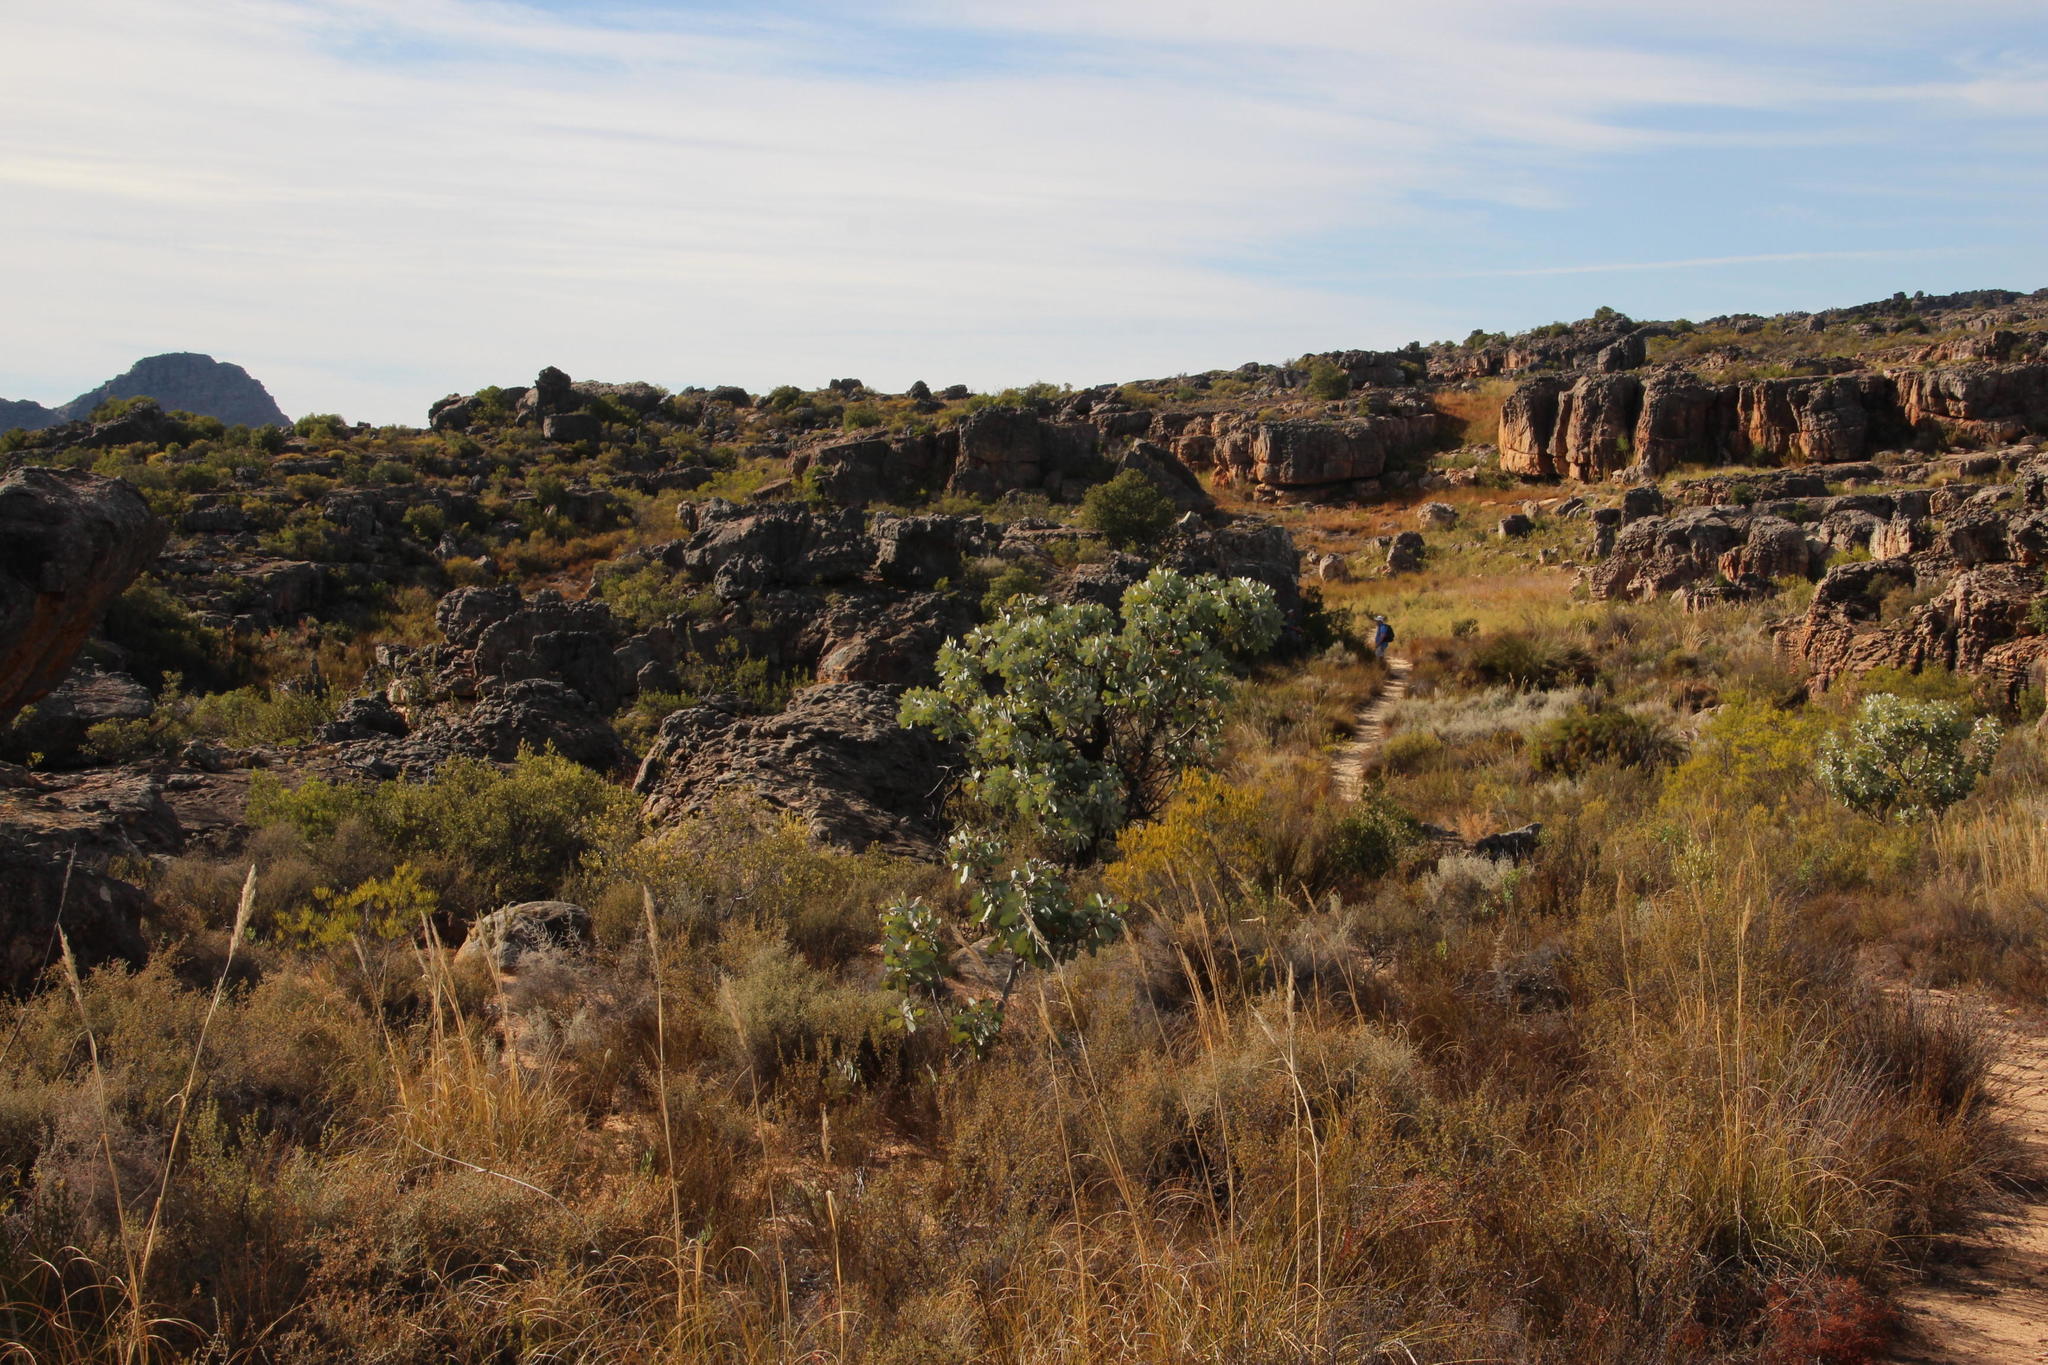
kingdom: Plantae
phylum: Tracheophyta
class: Magnoliopsida
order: Proteales
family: Proteaceae
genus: Protea
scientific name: Protea nitida
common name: Tree protea
